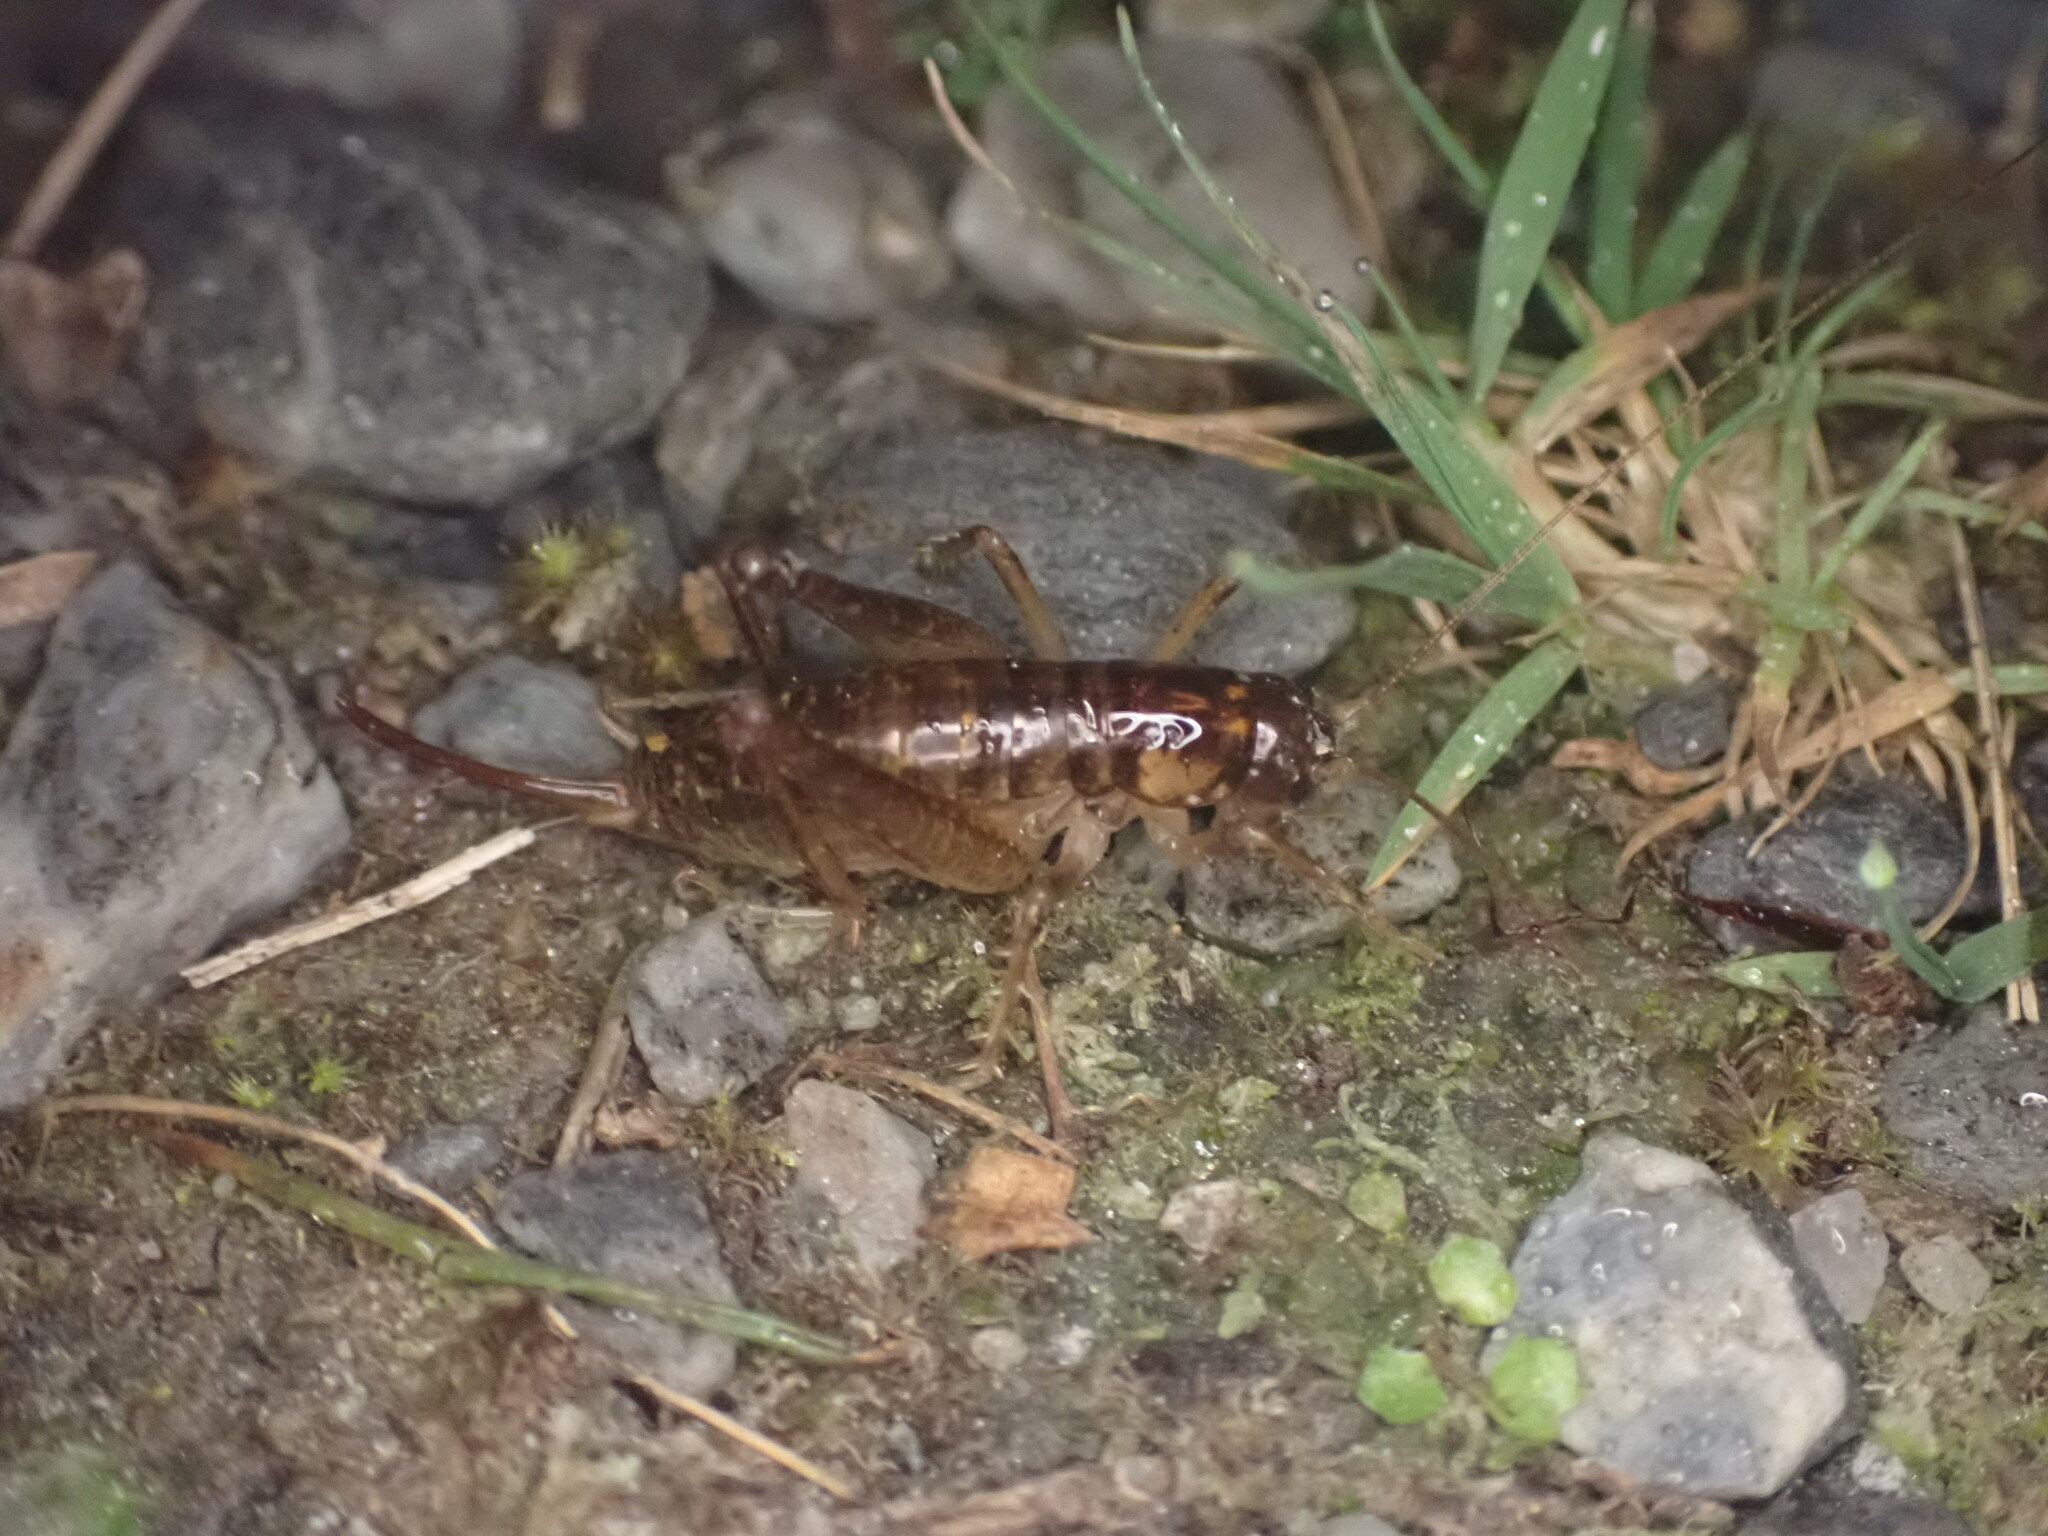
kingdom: Animalia
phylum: Arthropoda
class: Insecta
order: Orthoptera
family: Anostostomatidae
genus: Hemiandrus
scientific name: Hemiandrus maculifrons
